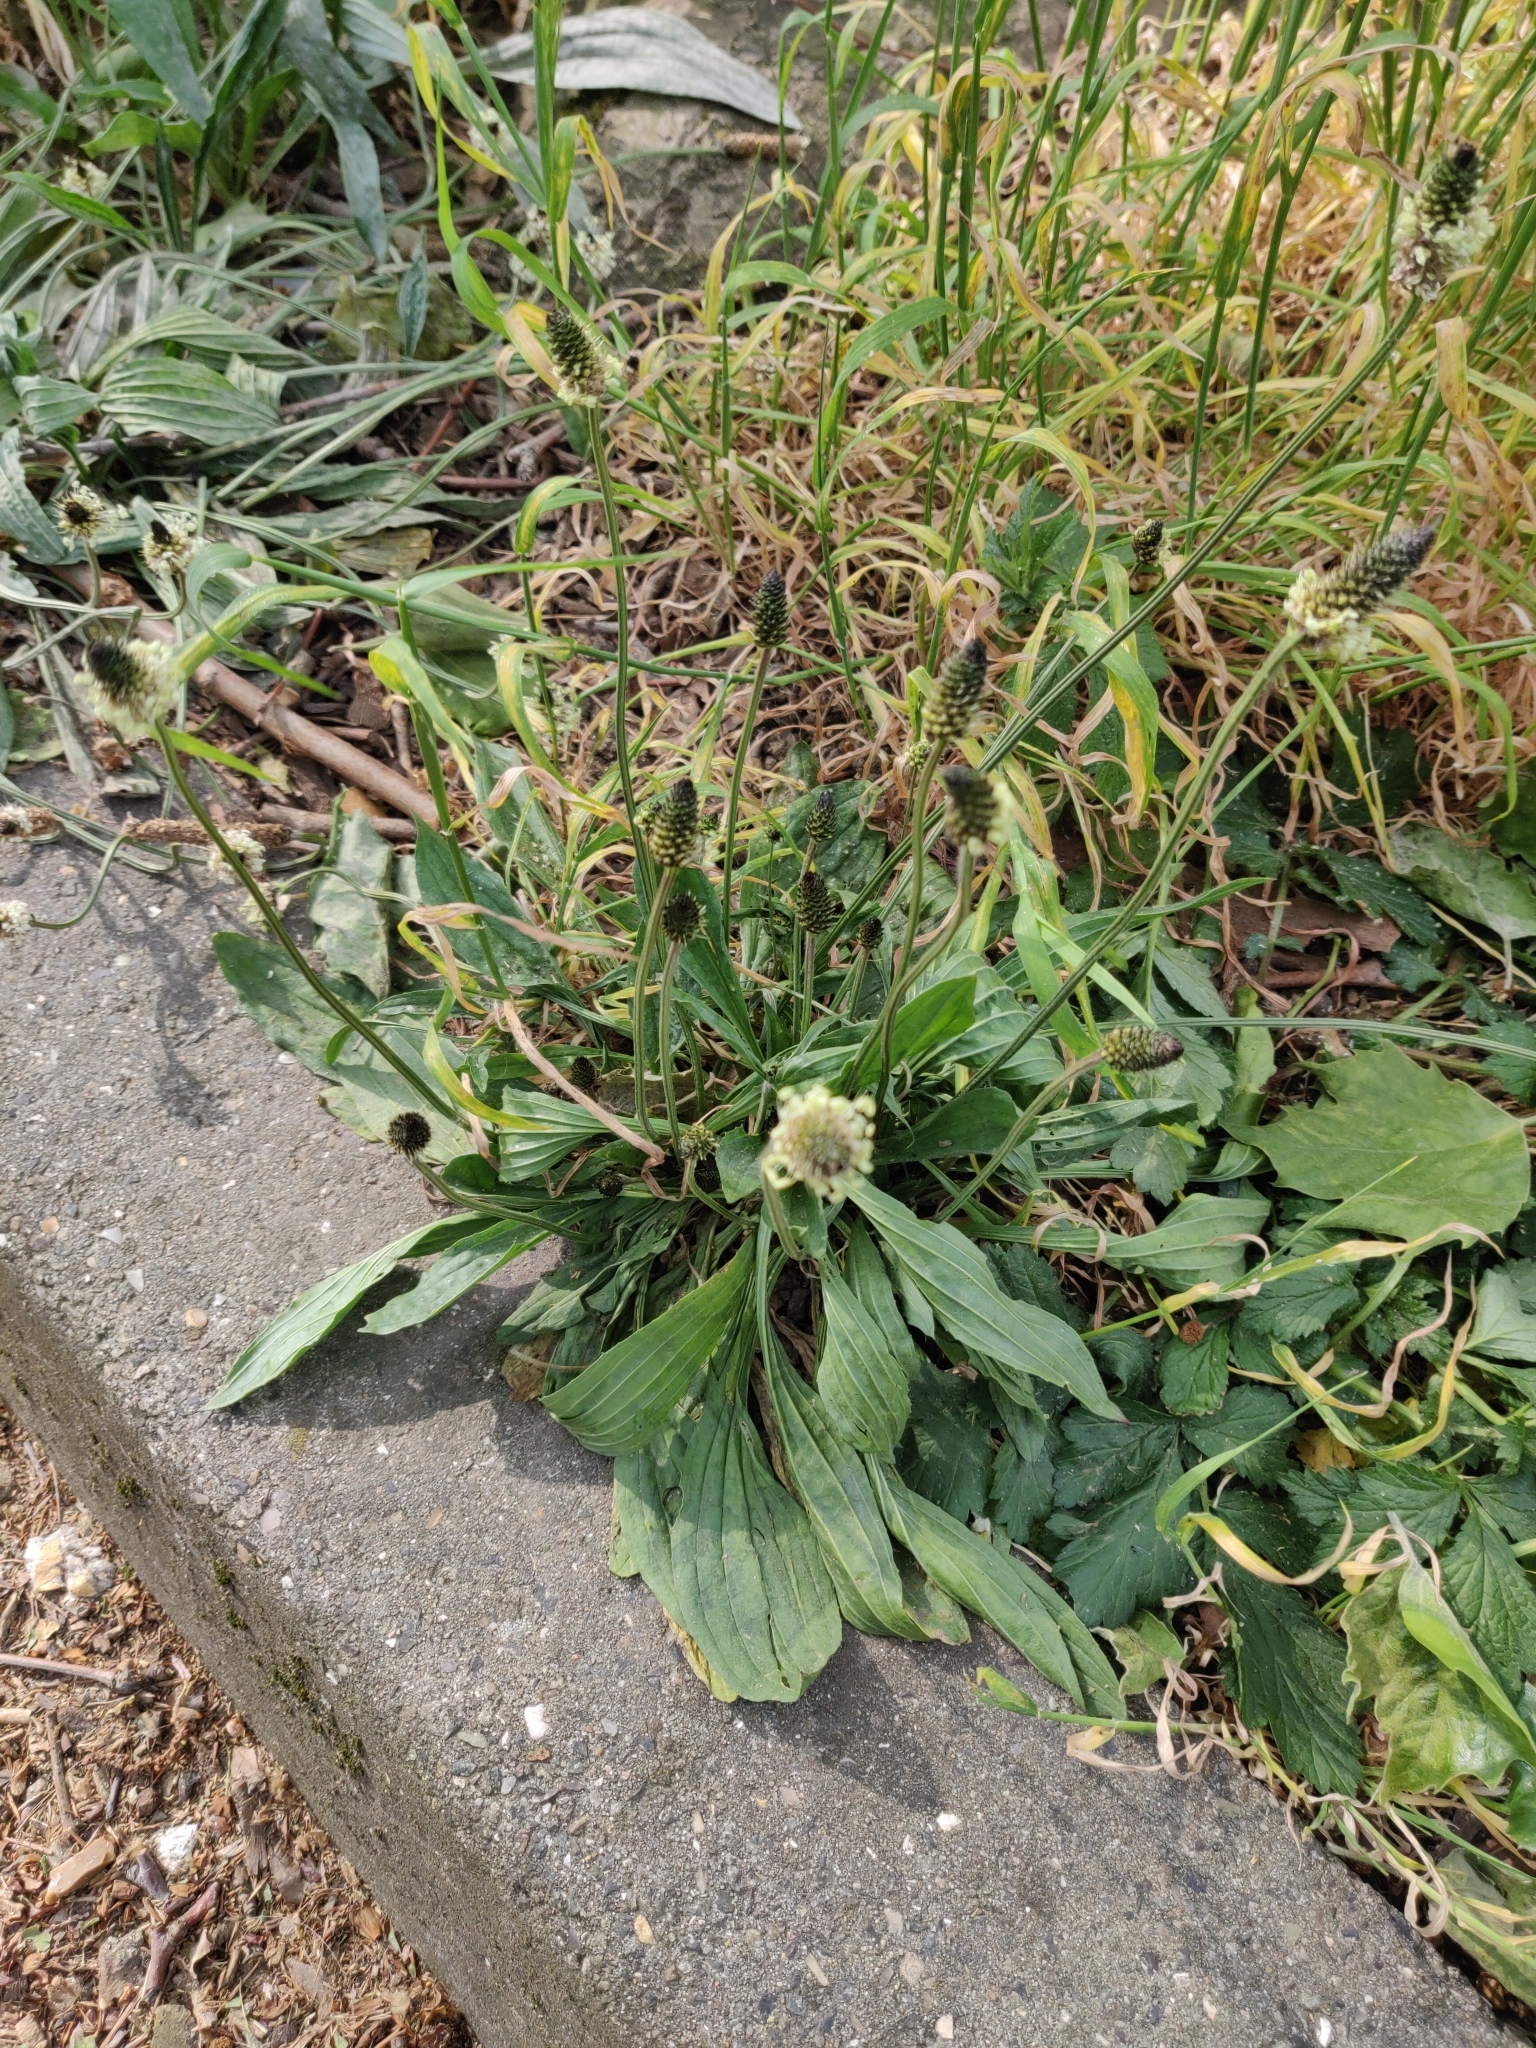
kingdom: Plantae
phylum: Tracheophyta
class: Magnoliopsida
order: Lamiales
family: Plantaginaceae
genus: Plantago
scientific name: Plantago lanceolata
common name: Ribwort plantain
